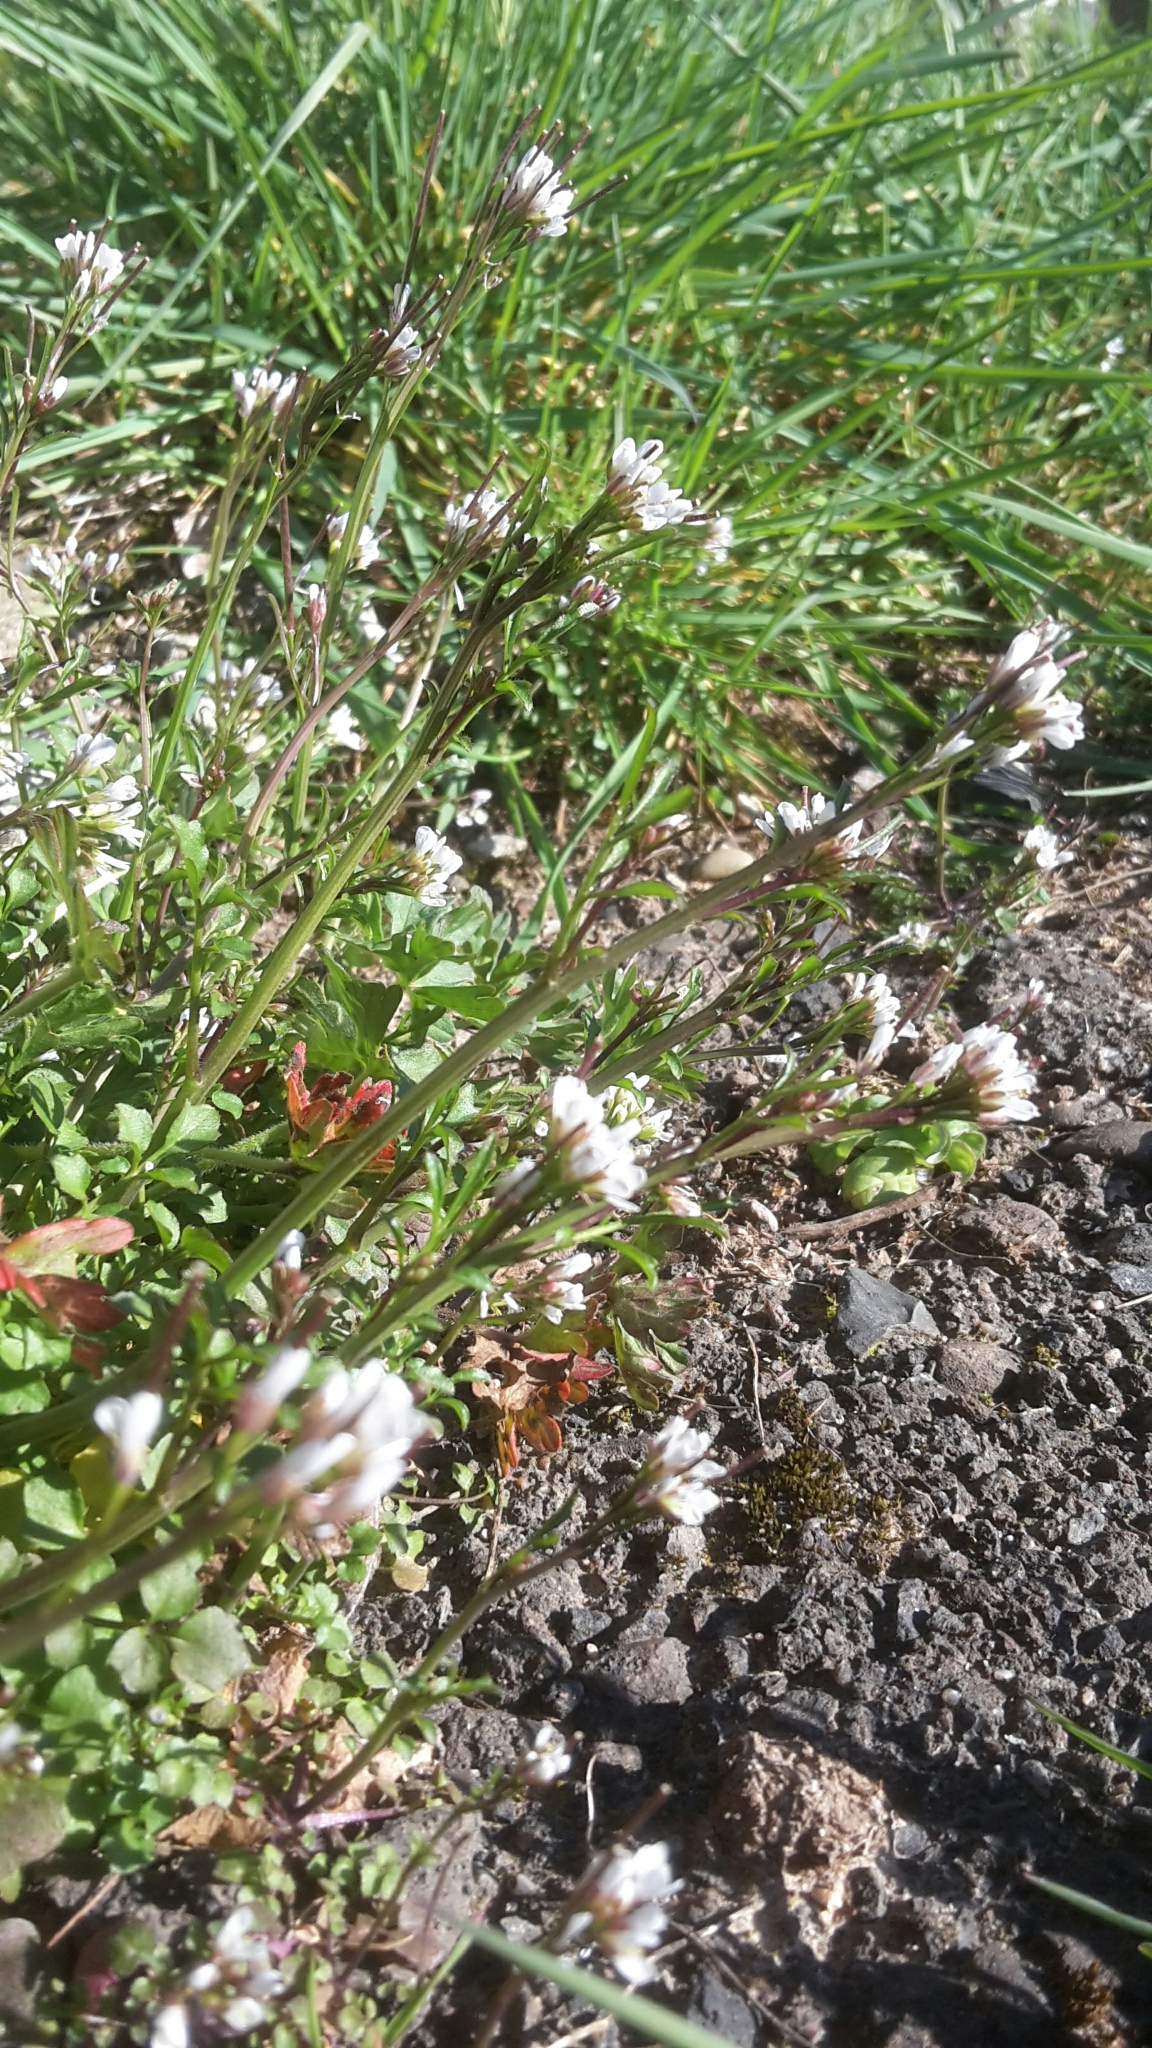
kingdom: Plantae
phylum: Tracheophyta
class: Magnoliopsida
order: Brassicales
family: Brassicaceae
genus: Cardamine
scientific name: Cardamine hirsuta
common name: Hairy bittercress
